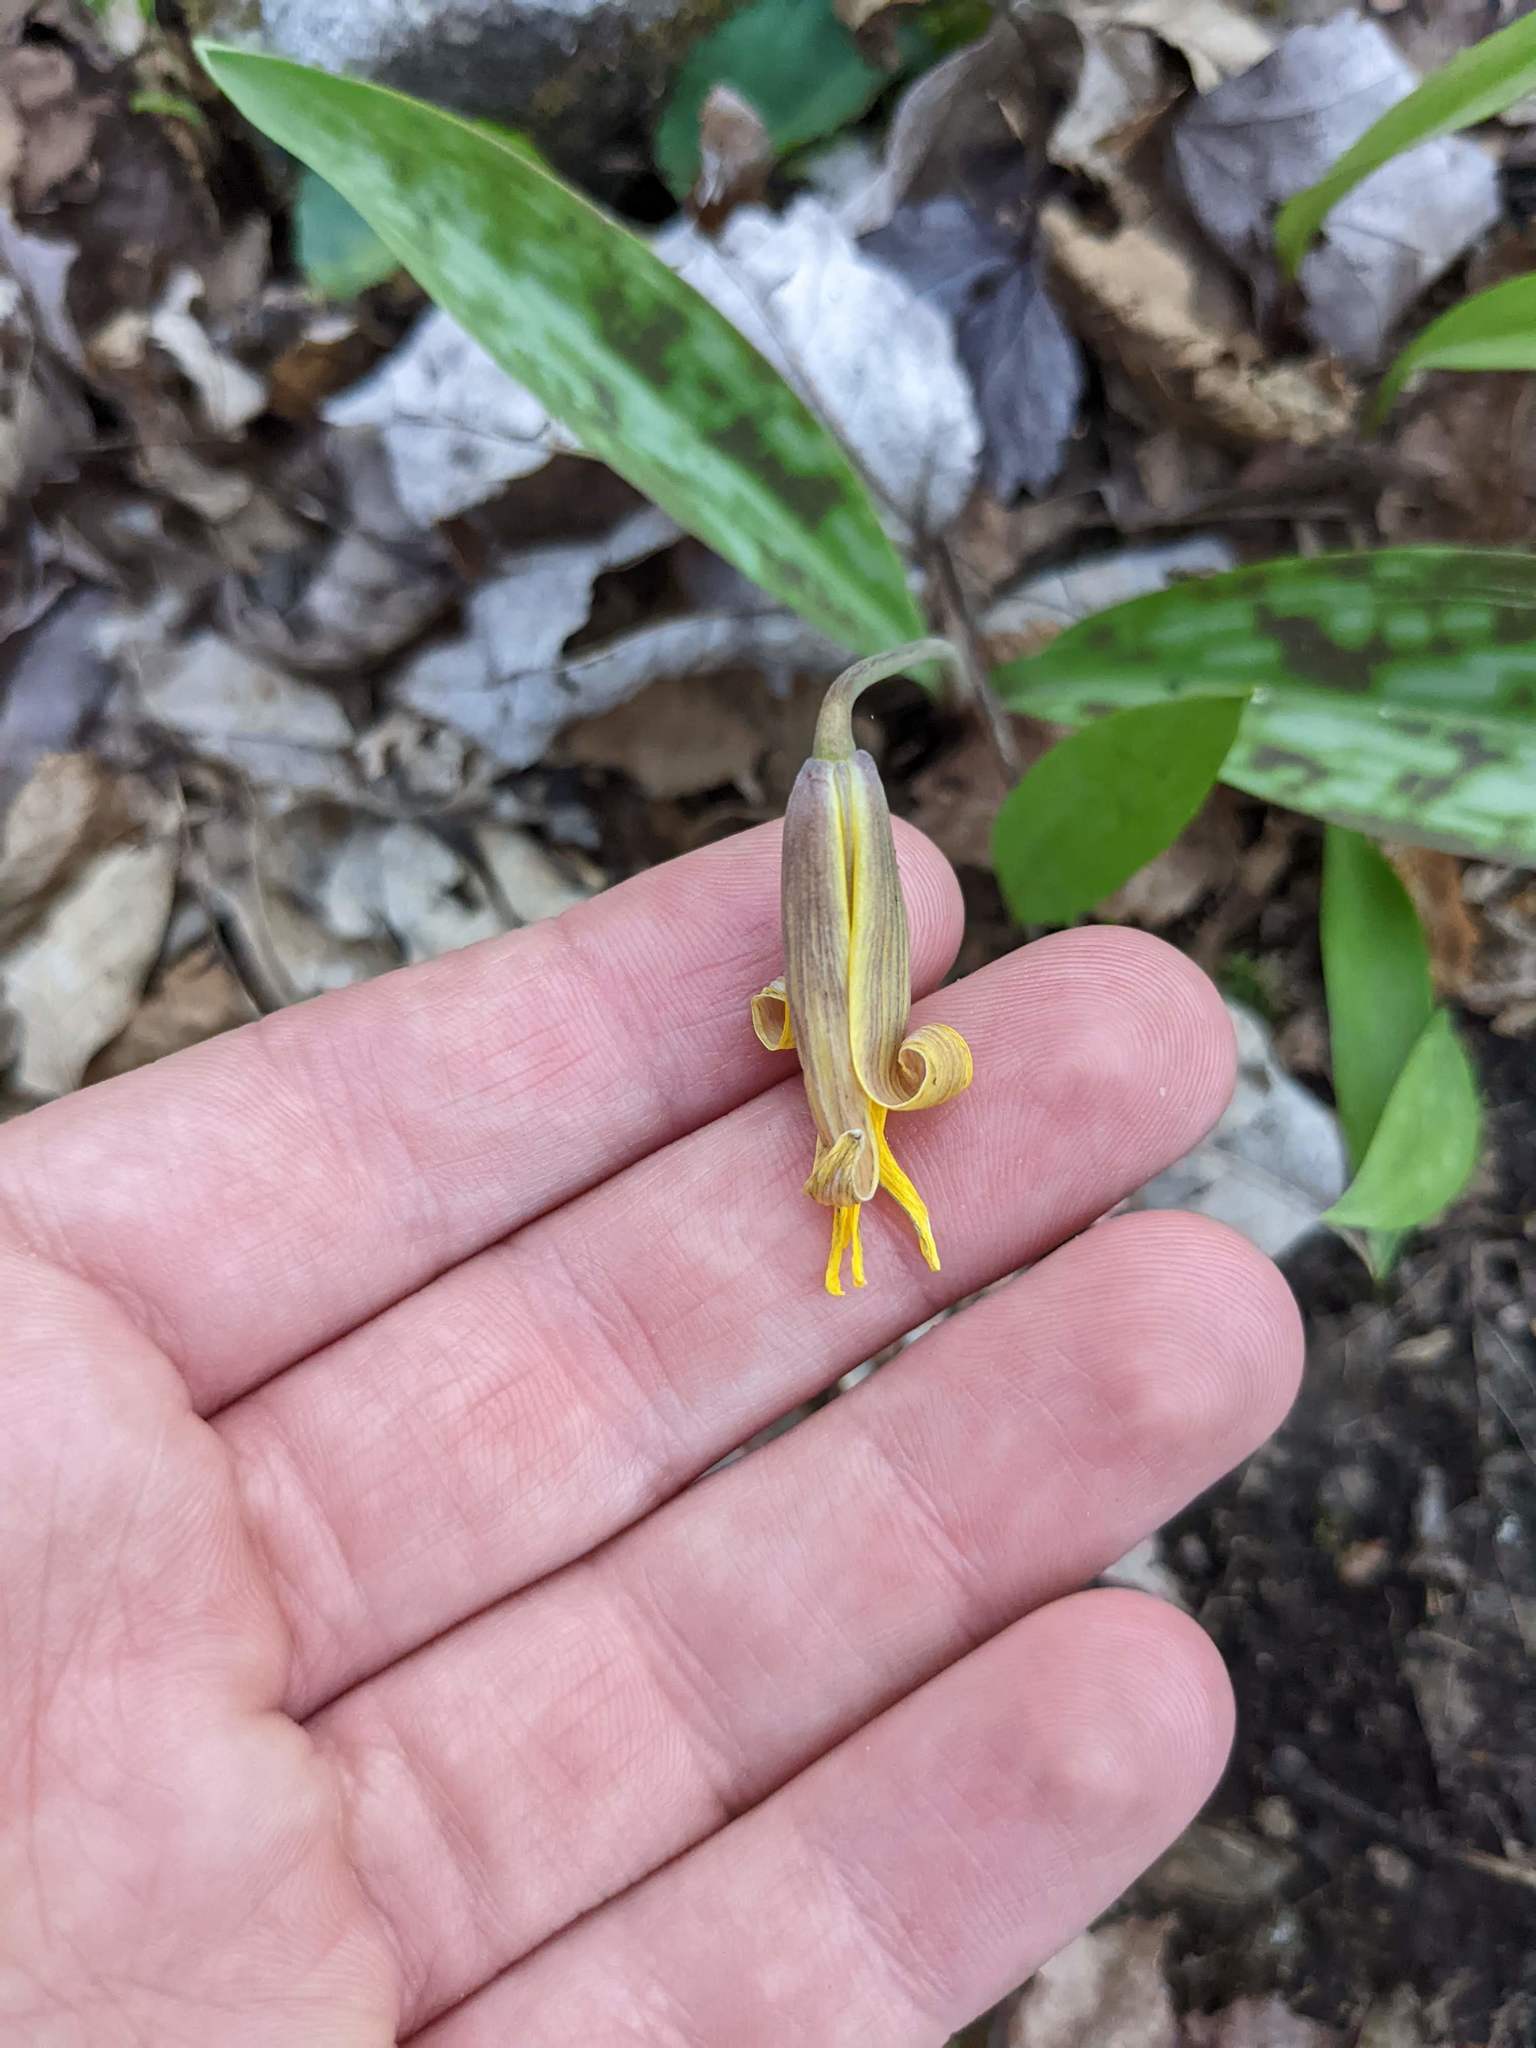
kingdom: Plantae
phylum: Tracheophyta
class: Liliopsida
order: Liliales
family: Liliaceae
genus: Erythronium
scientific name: Erythronium americanum
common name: Yellow adder's-tongue
